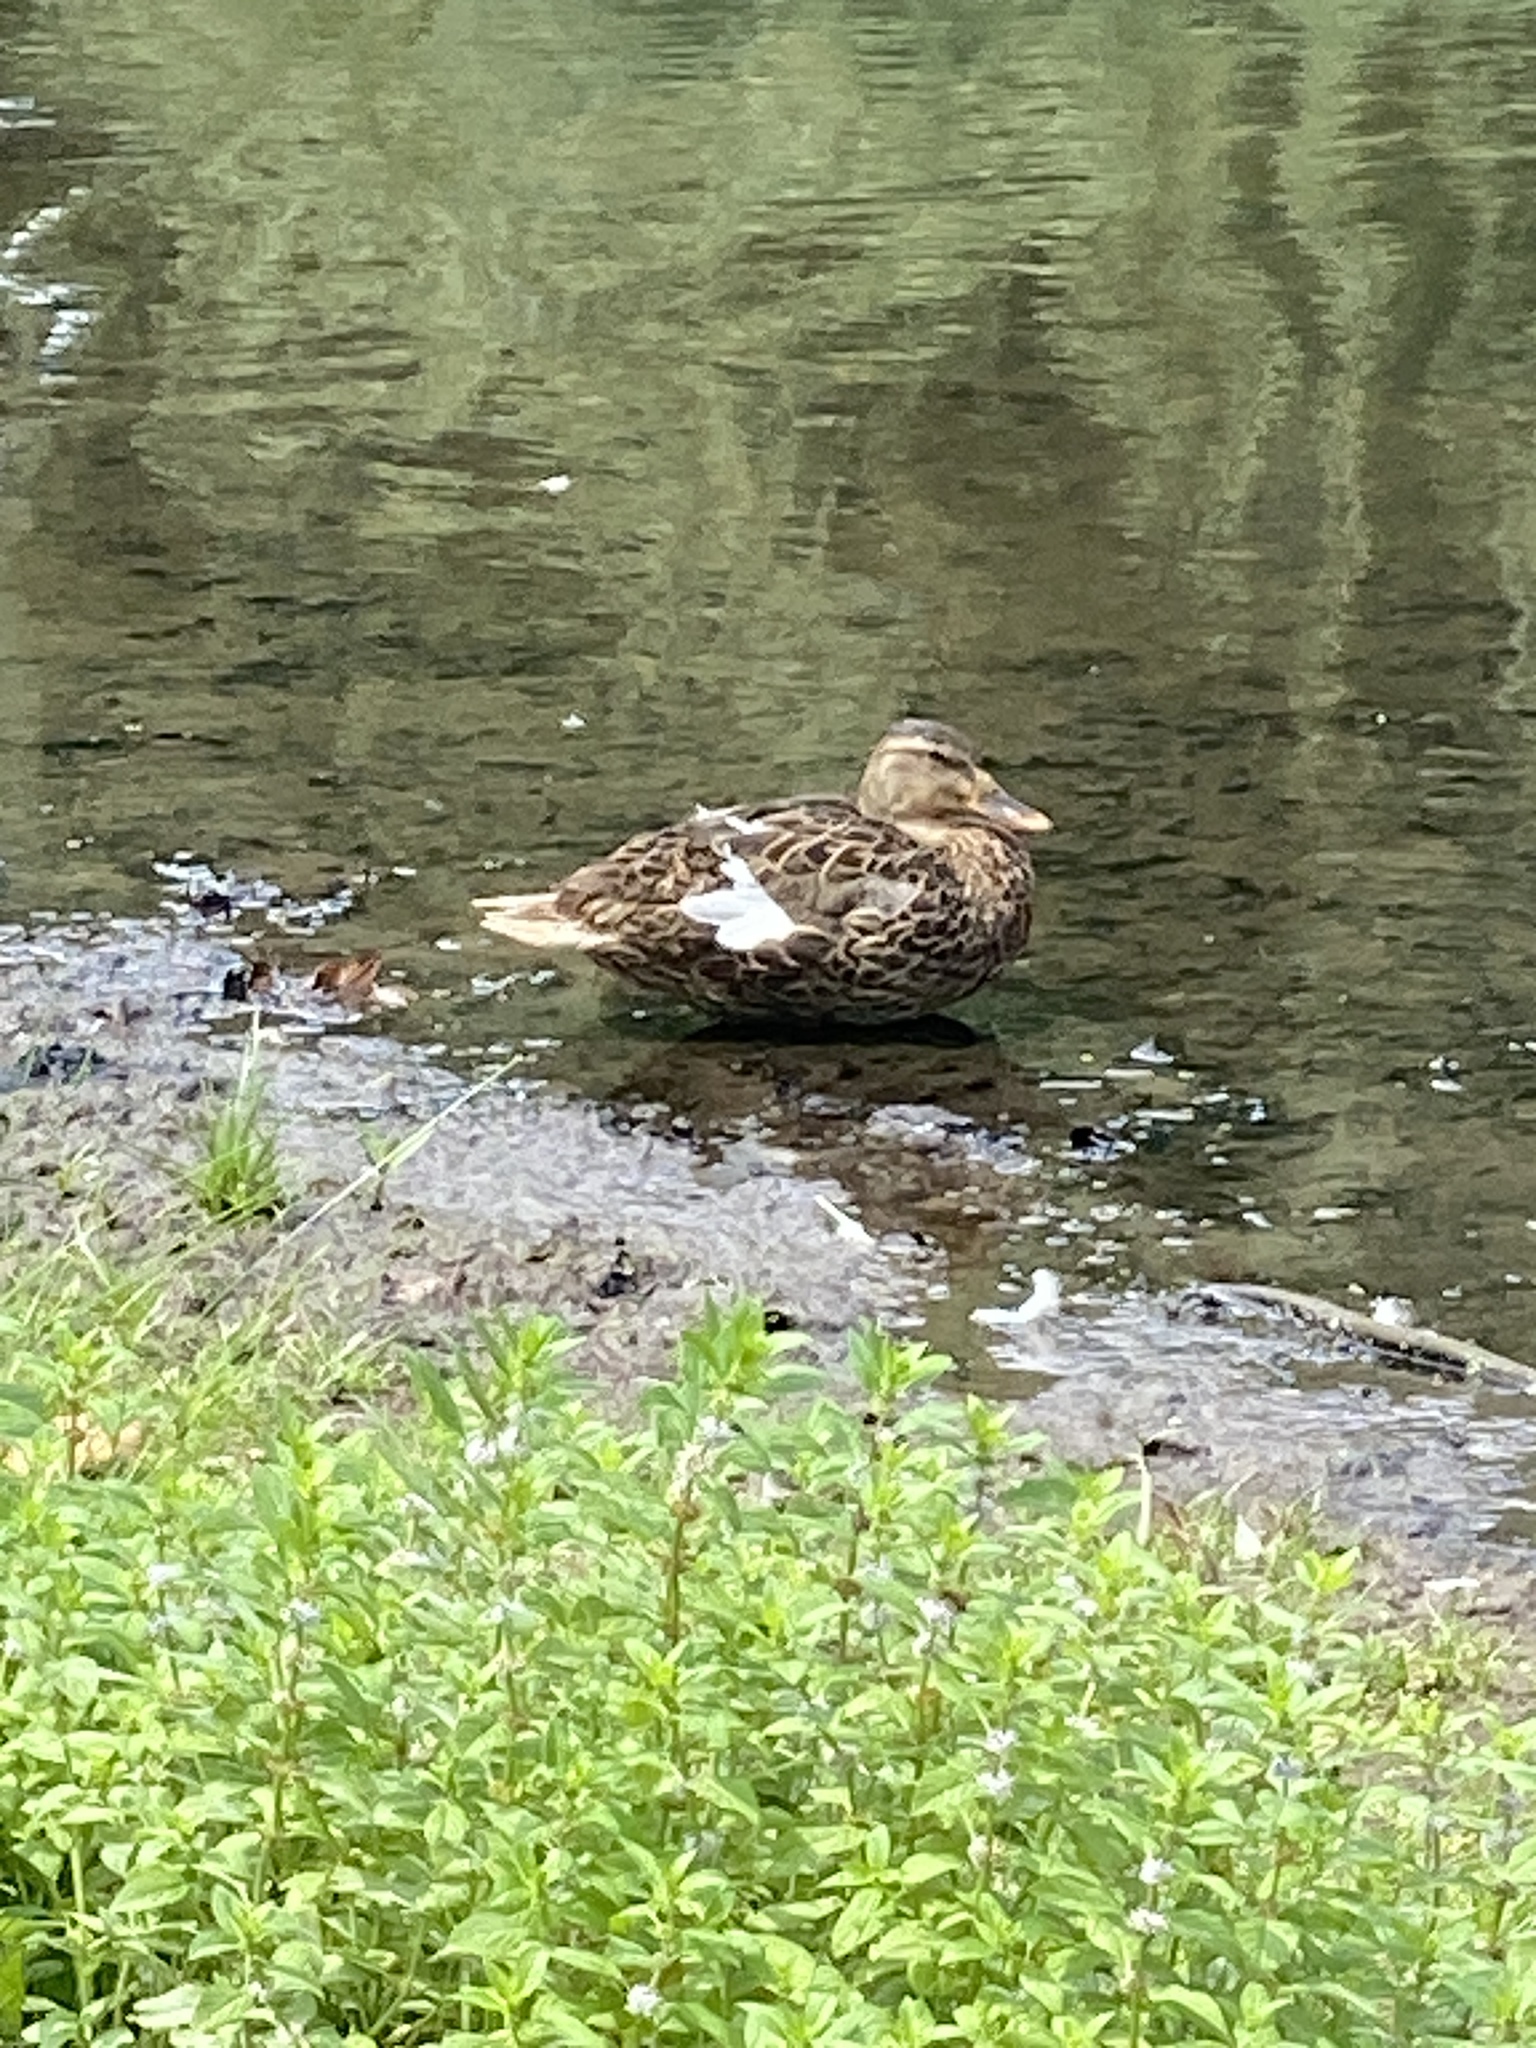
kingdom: Animalia
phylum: Chordata
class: Aves
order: Anseriformes
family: Anatidae
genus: Anas
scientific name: Anas platyrhynchos
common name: Mallard
